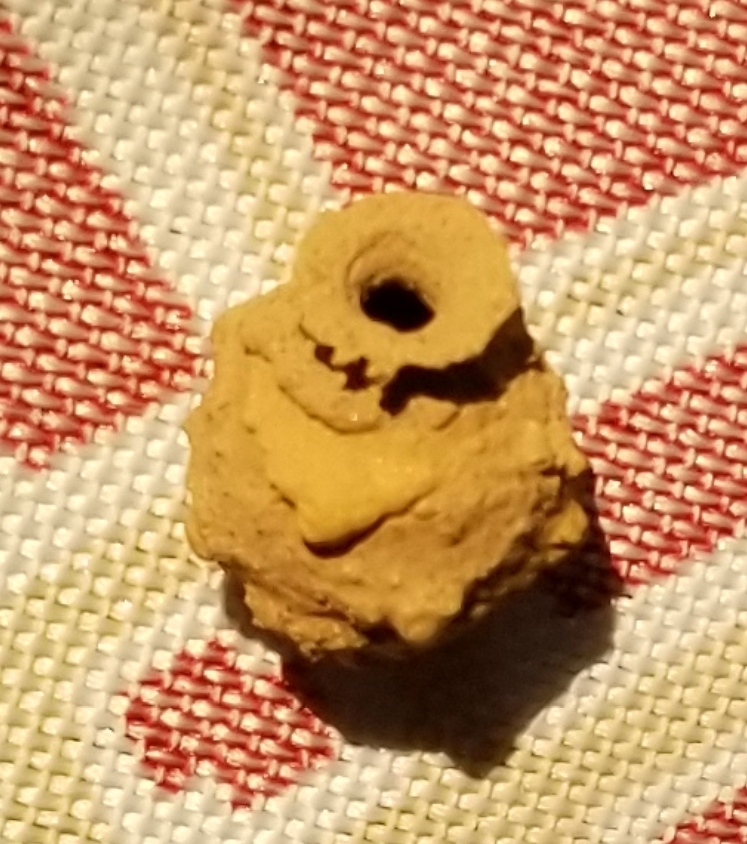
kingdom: Animalia
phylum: Arthropoda
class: Insecta
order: Hymenoptera
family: Vespidae
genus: Eumenes
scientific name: Eumenes
